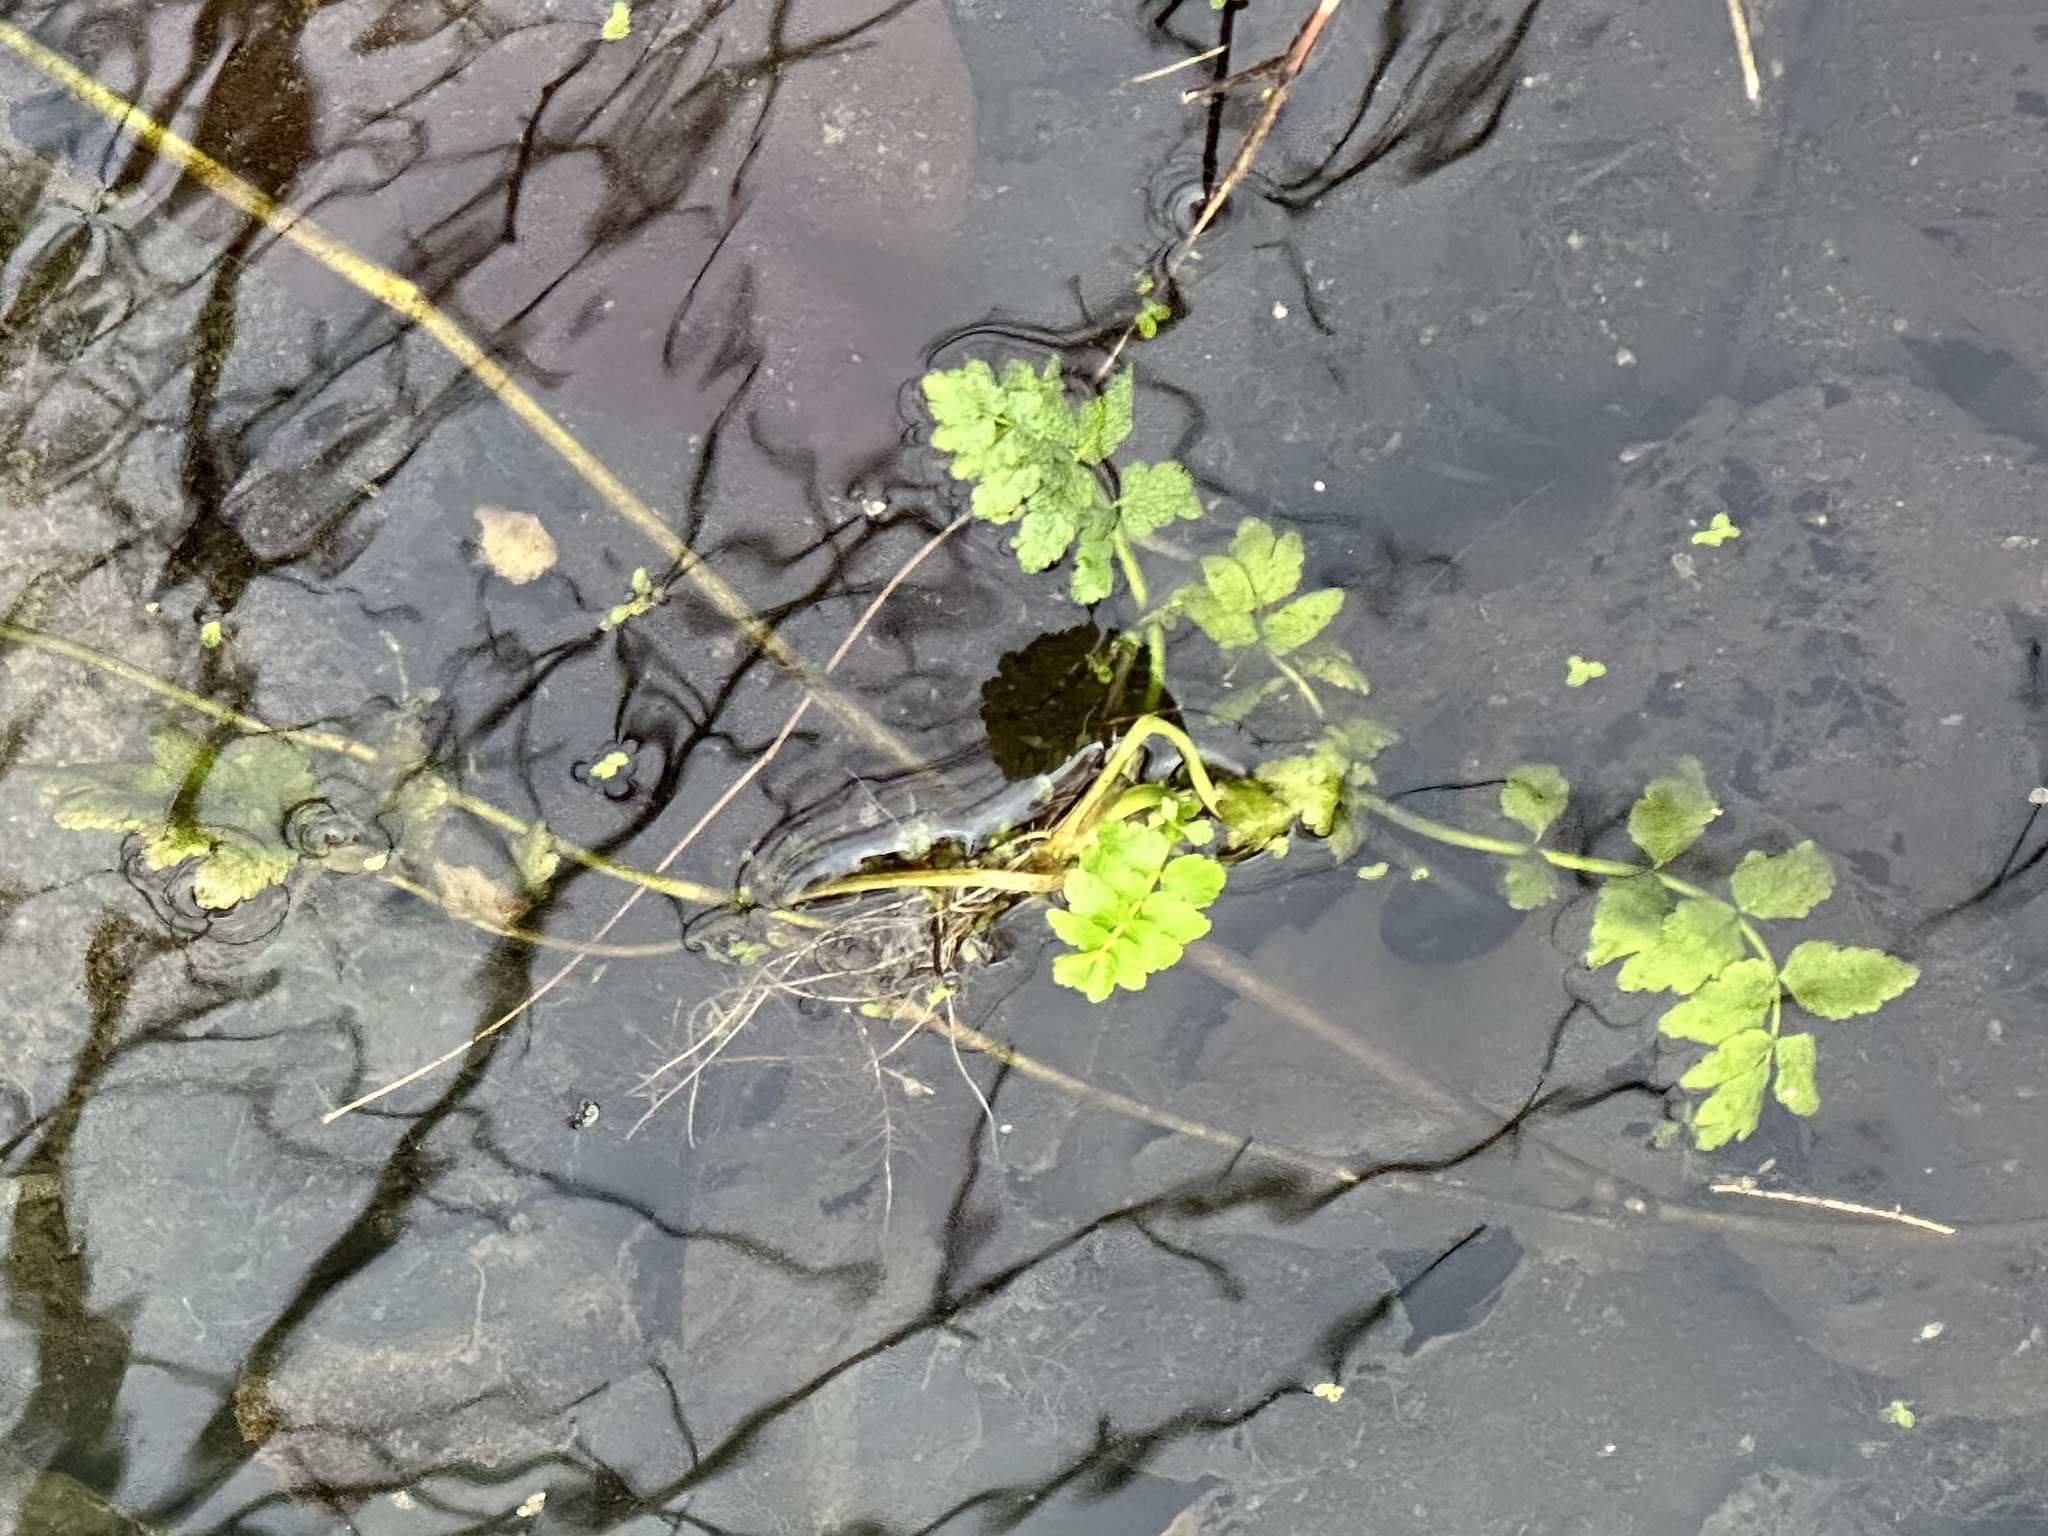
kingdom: Plantae
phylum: Tracheophyta
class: Magnoliopsida
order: Apiales
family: Apiaceae
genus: Berula
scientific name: Berula erecta
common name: Lesser water-parsnip
